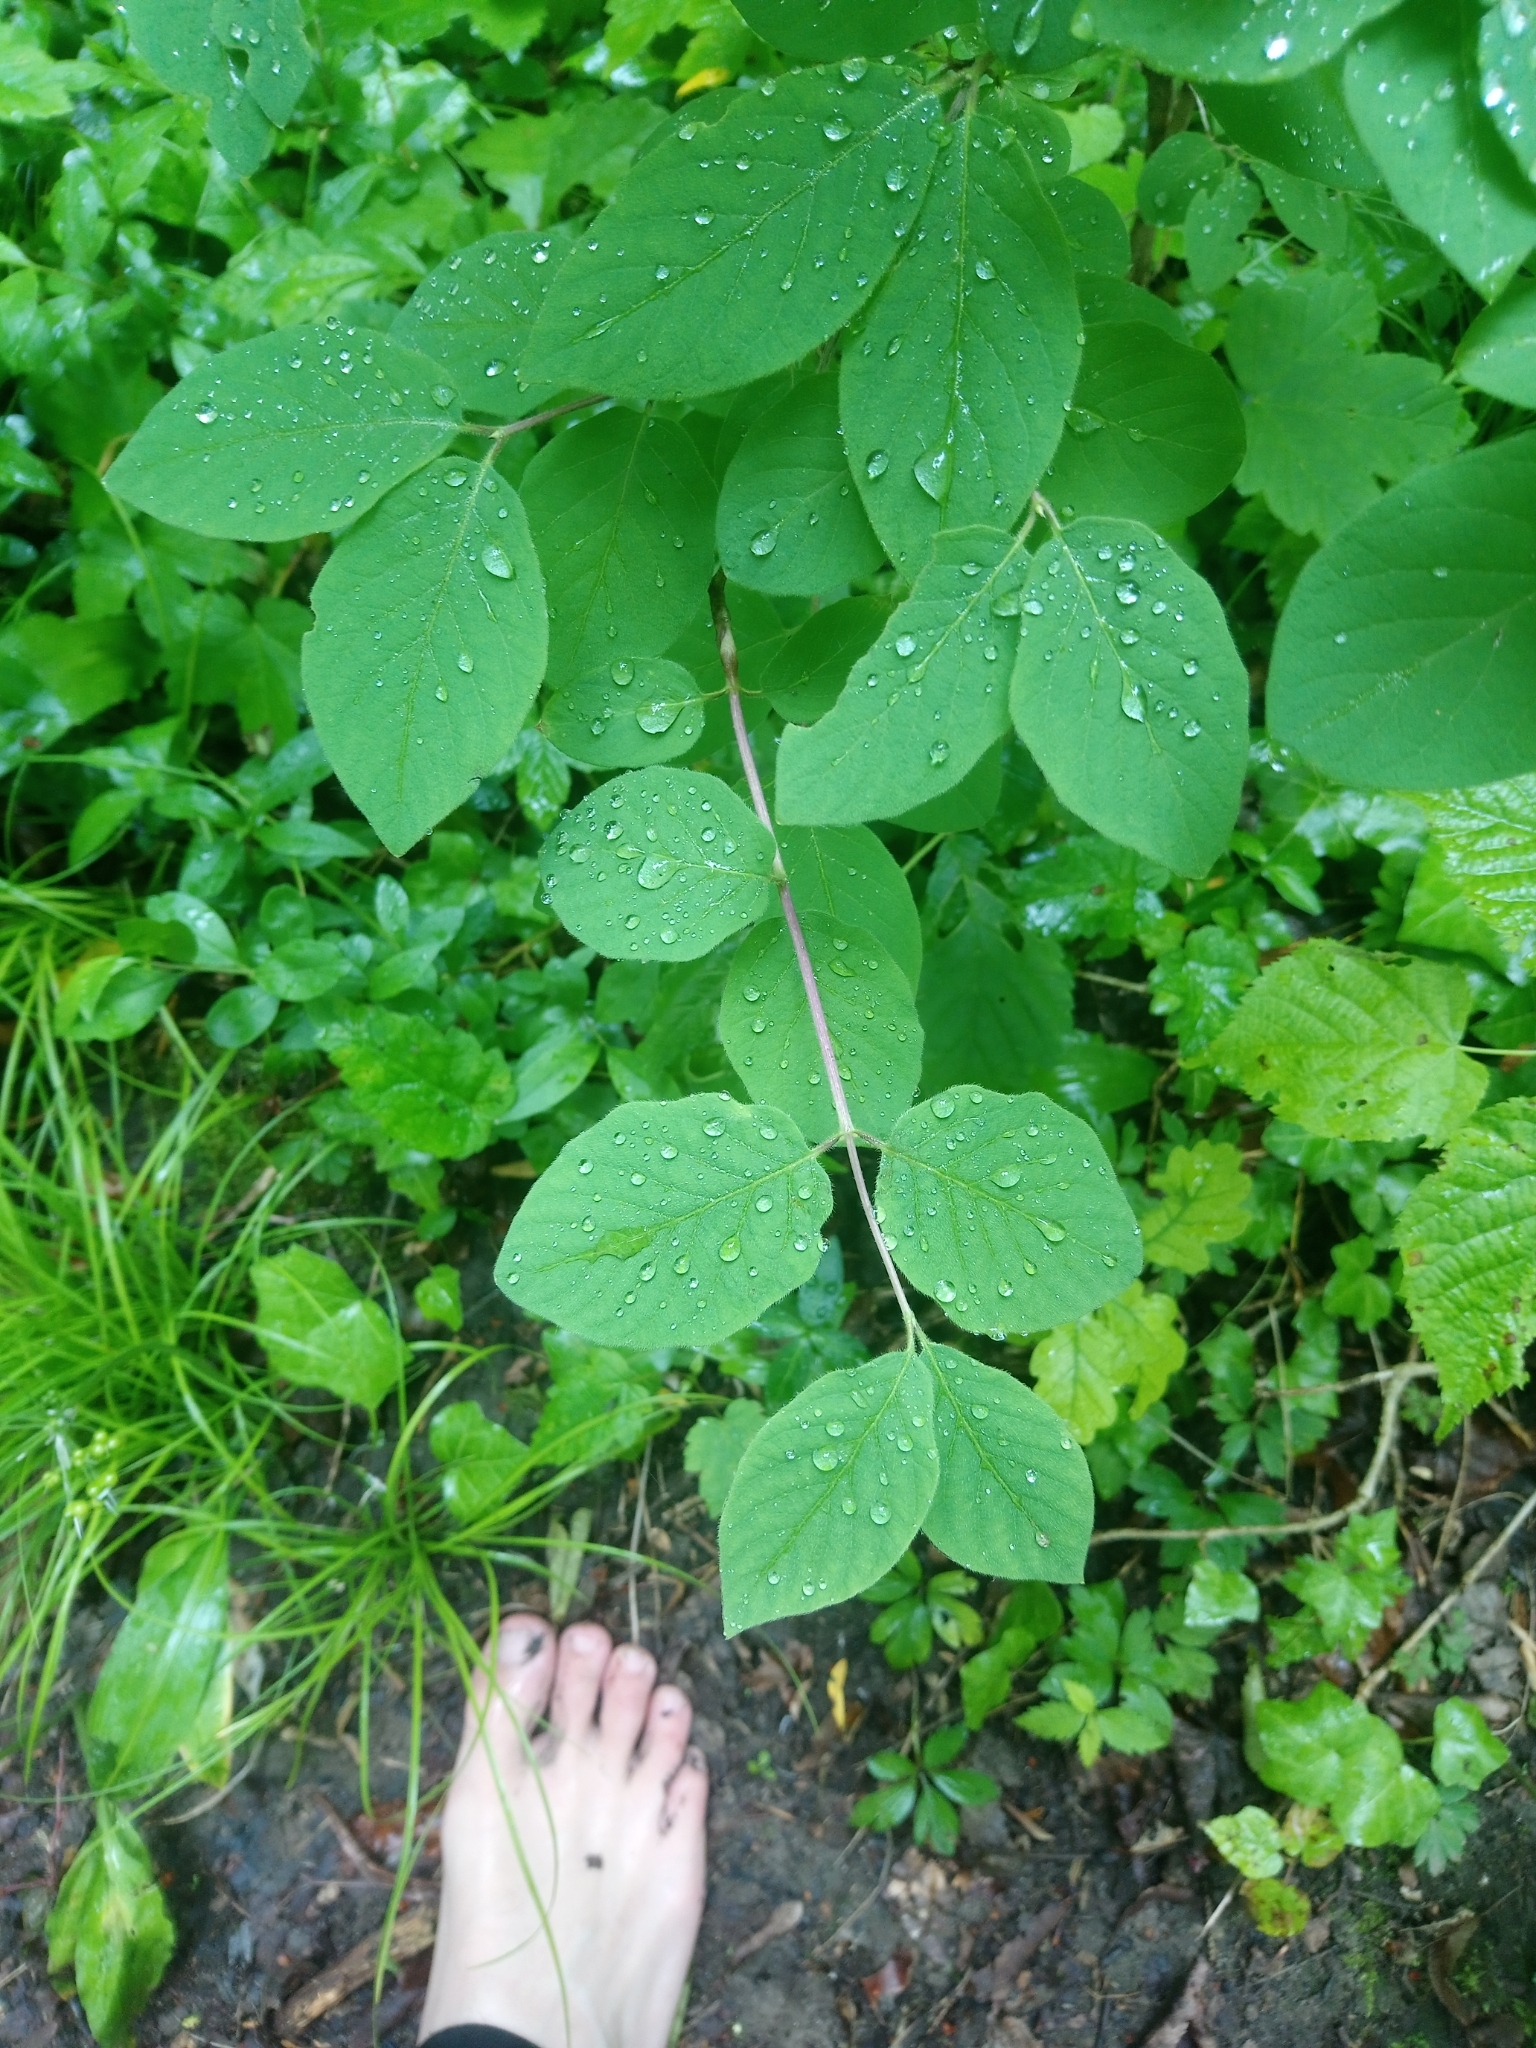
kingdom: Plantae
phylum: Tracheophyta
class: Magnoliopsida
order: Dipsacales
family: Caprifoliaceae
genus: Lonicera
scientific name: Lonicera xylosteum
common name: Fly honeysuckle
